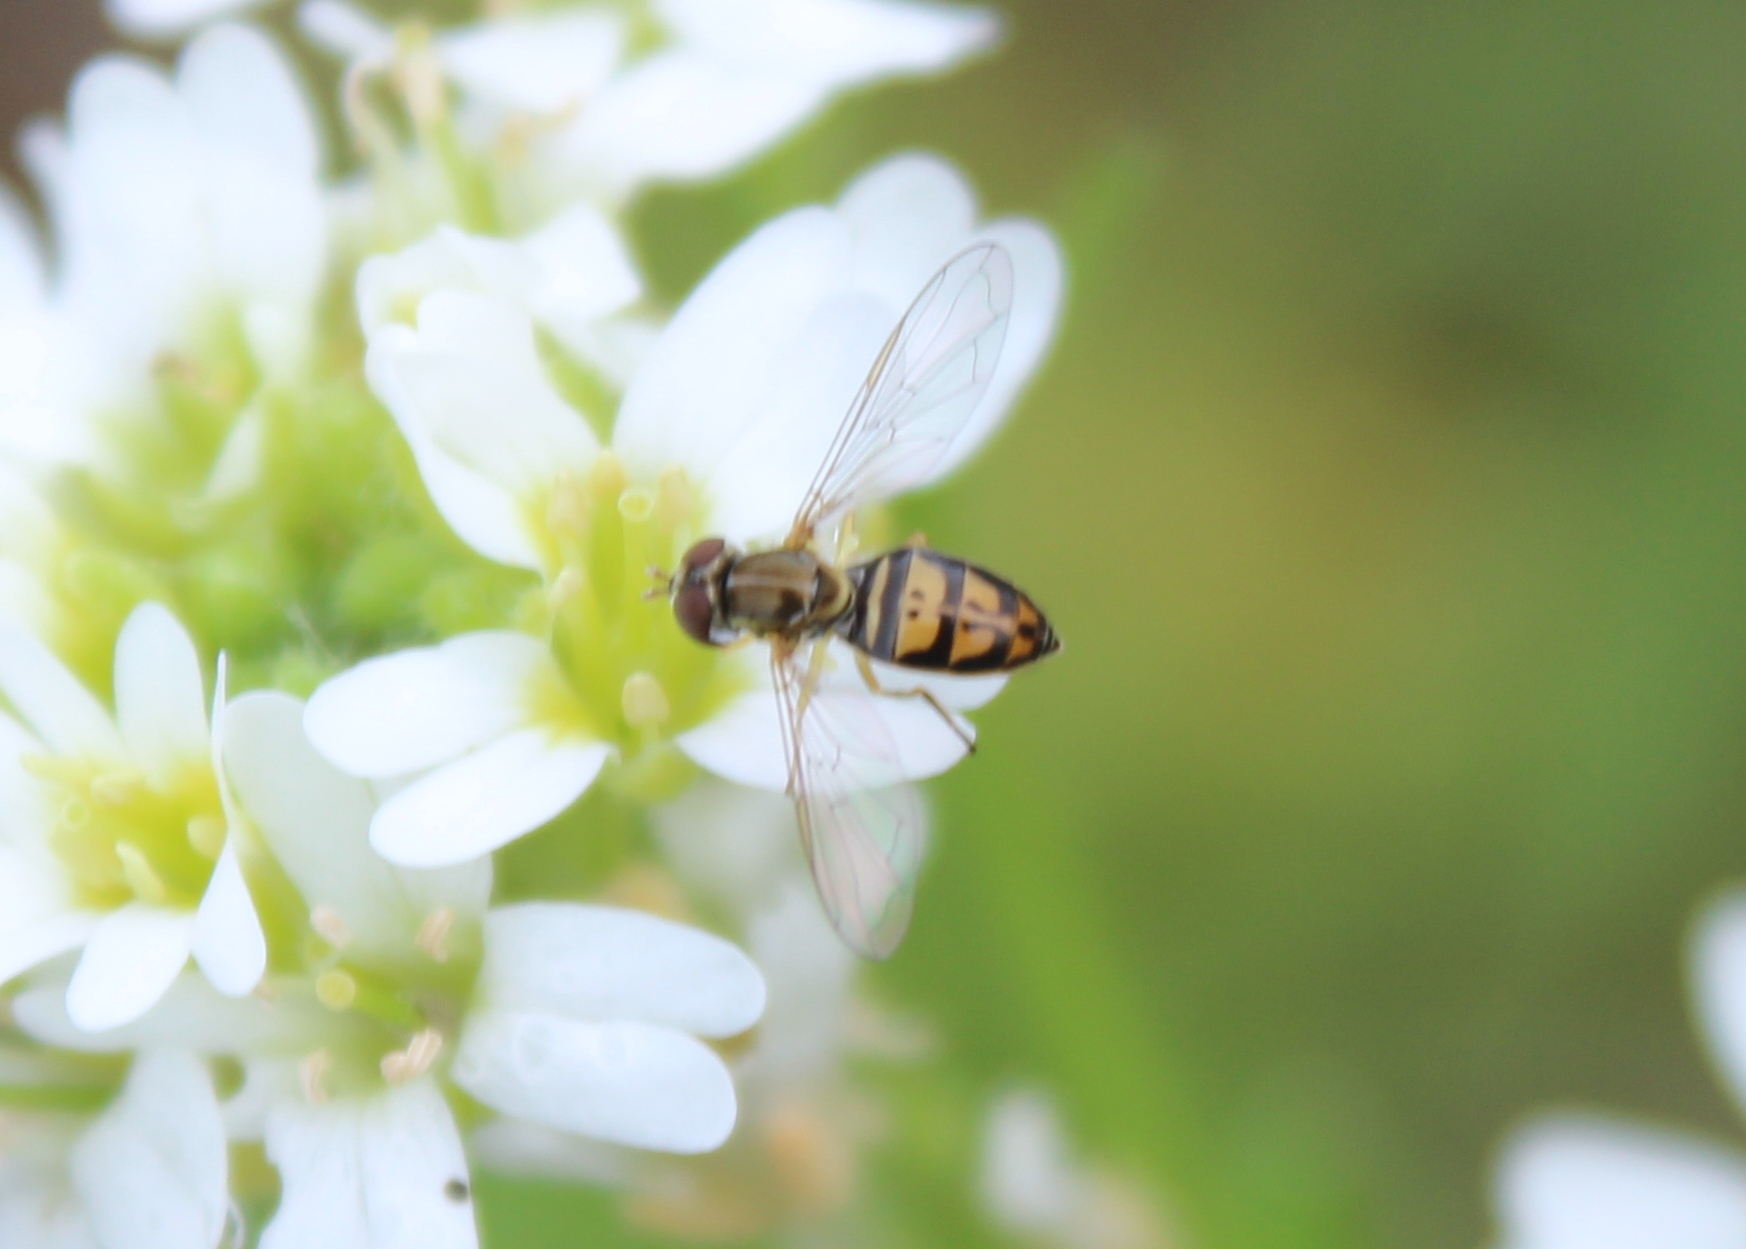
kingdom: Animalia
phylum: Arthropoda
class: Insecta
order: Diptera
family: Syrphidae
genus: Toxomerus
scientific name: Toxomerus marginatus
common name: Syrphid fly
